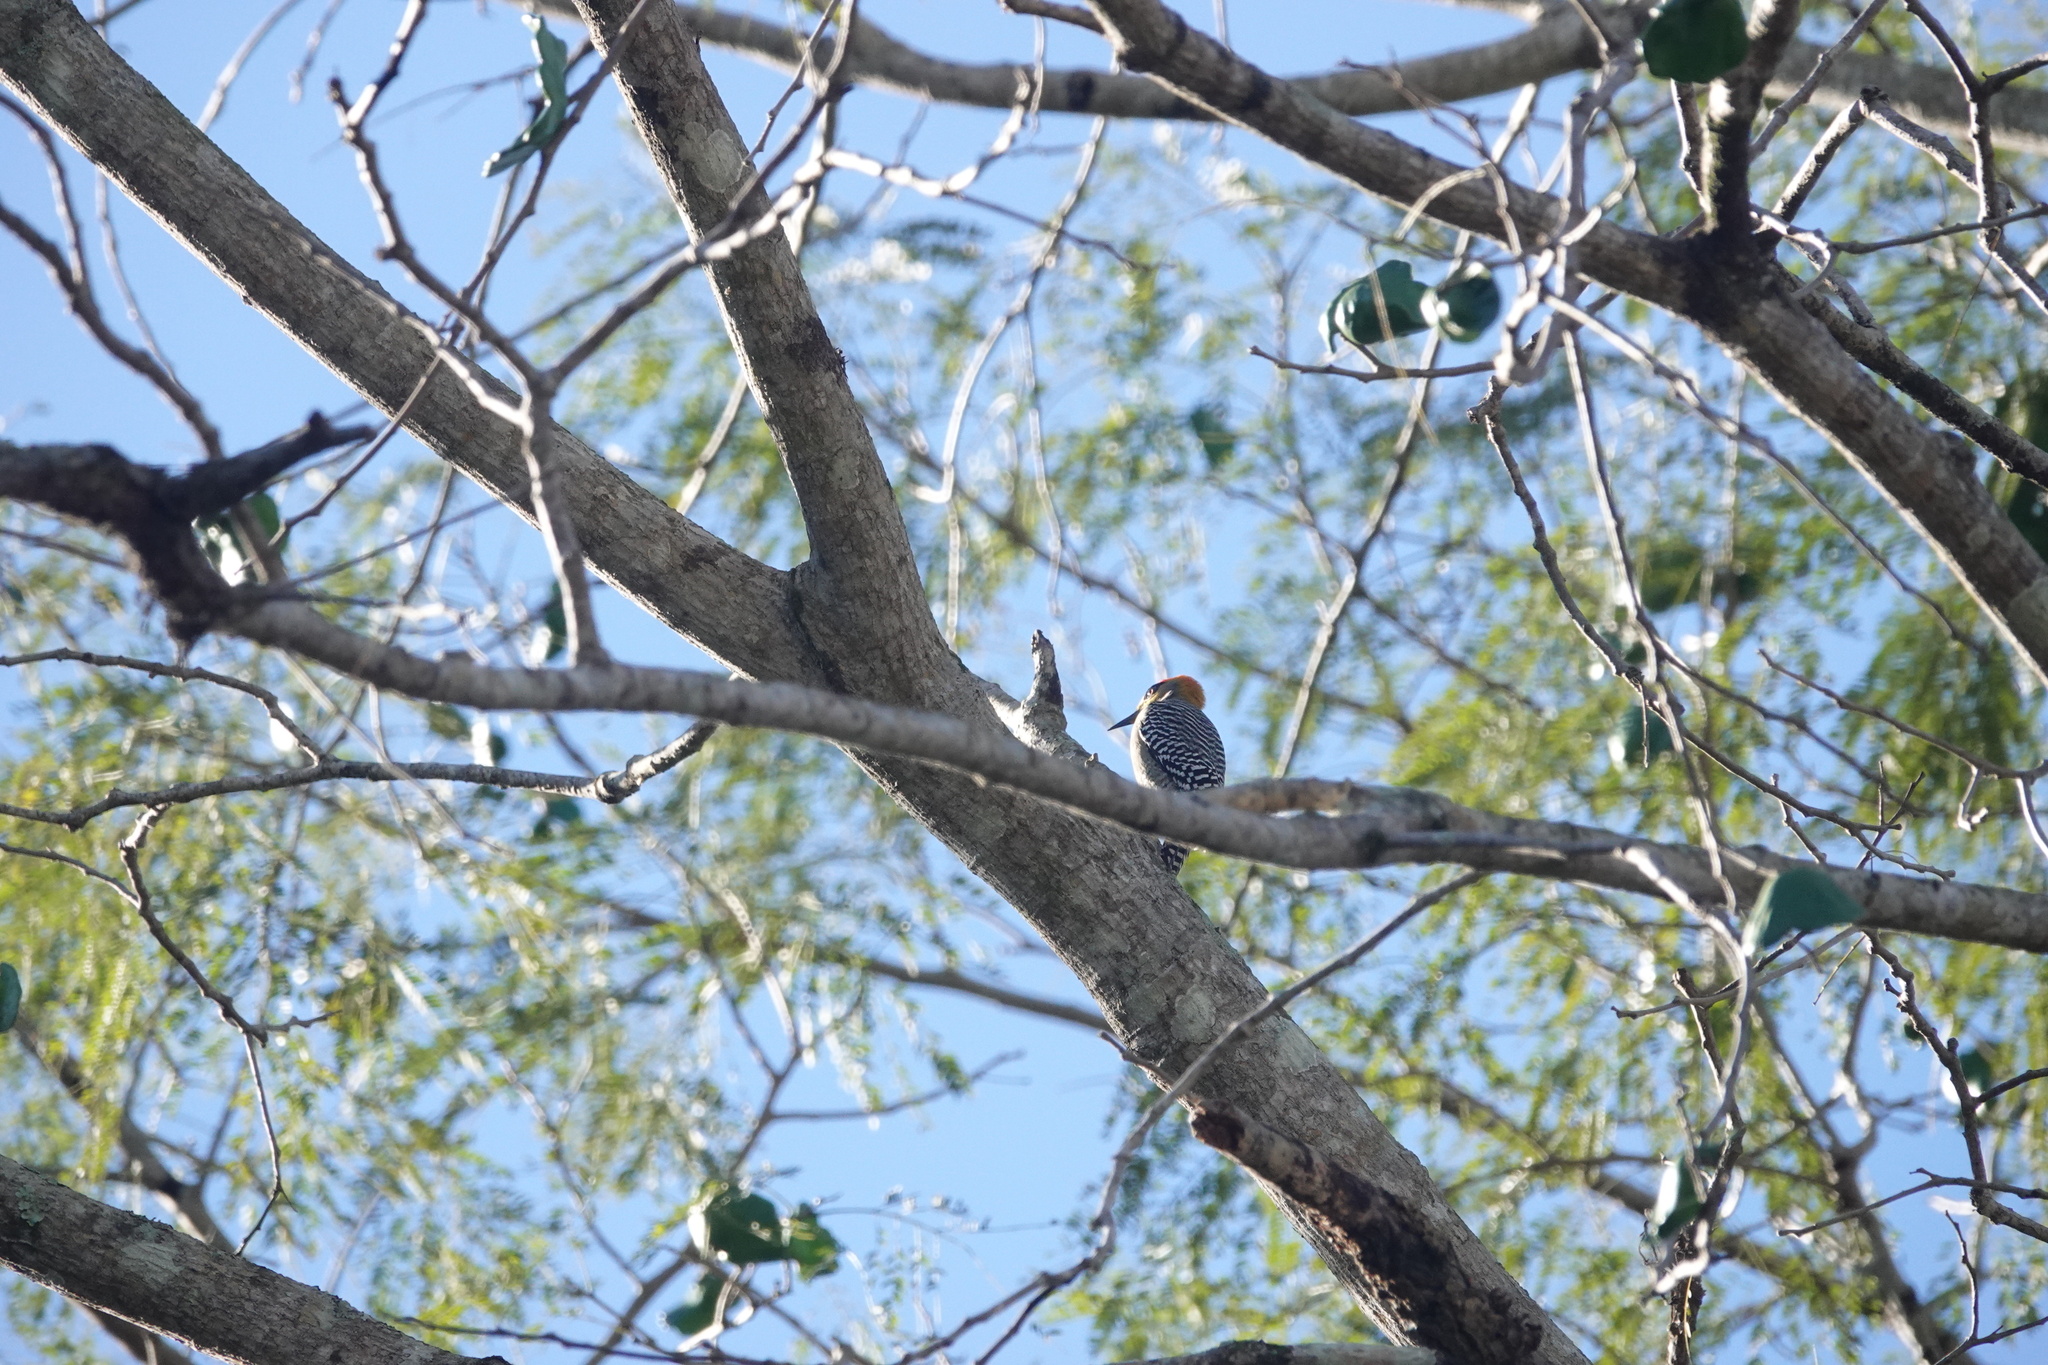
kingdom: Animalia
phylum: Chordata
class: Aves
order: Piciformes
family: Picidae
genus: Melanerpes
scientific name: Melanerpes chrysogenys
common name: Golden-cheeked woodpecker
